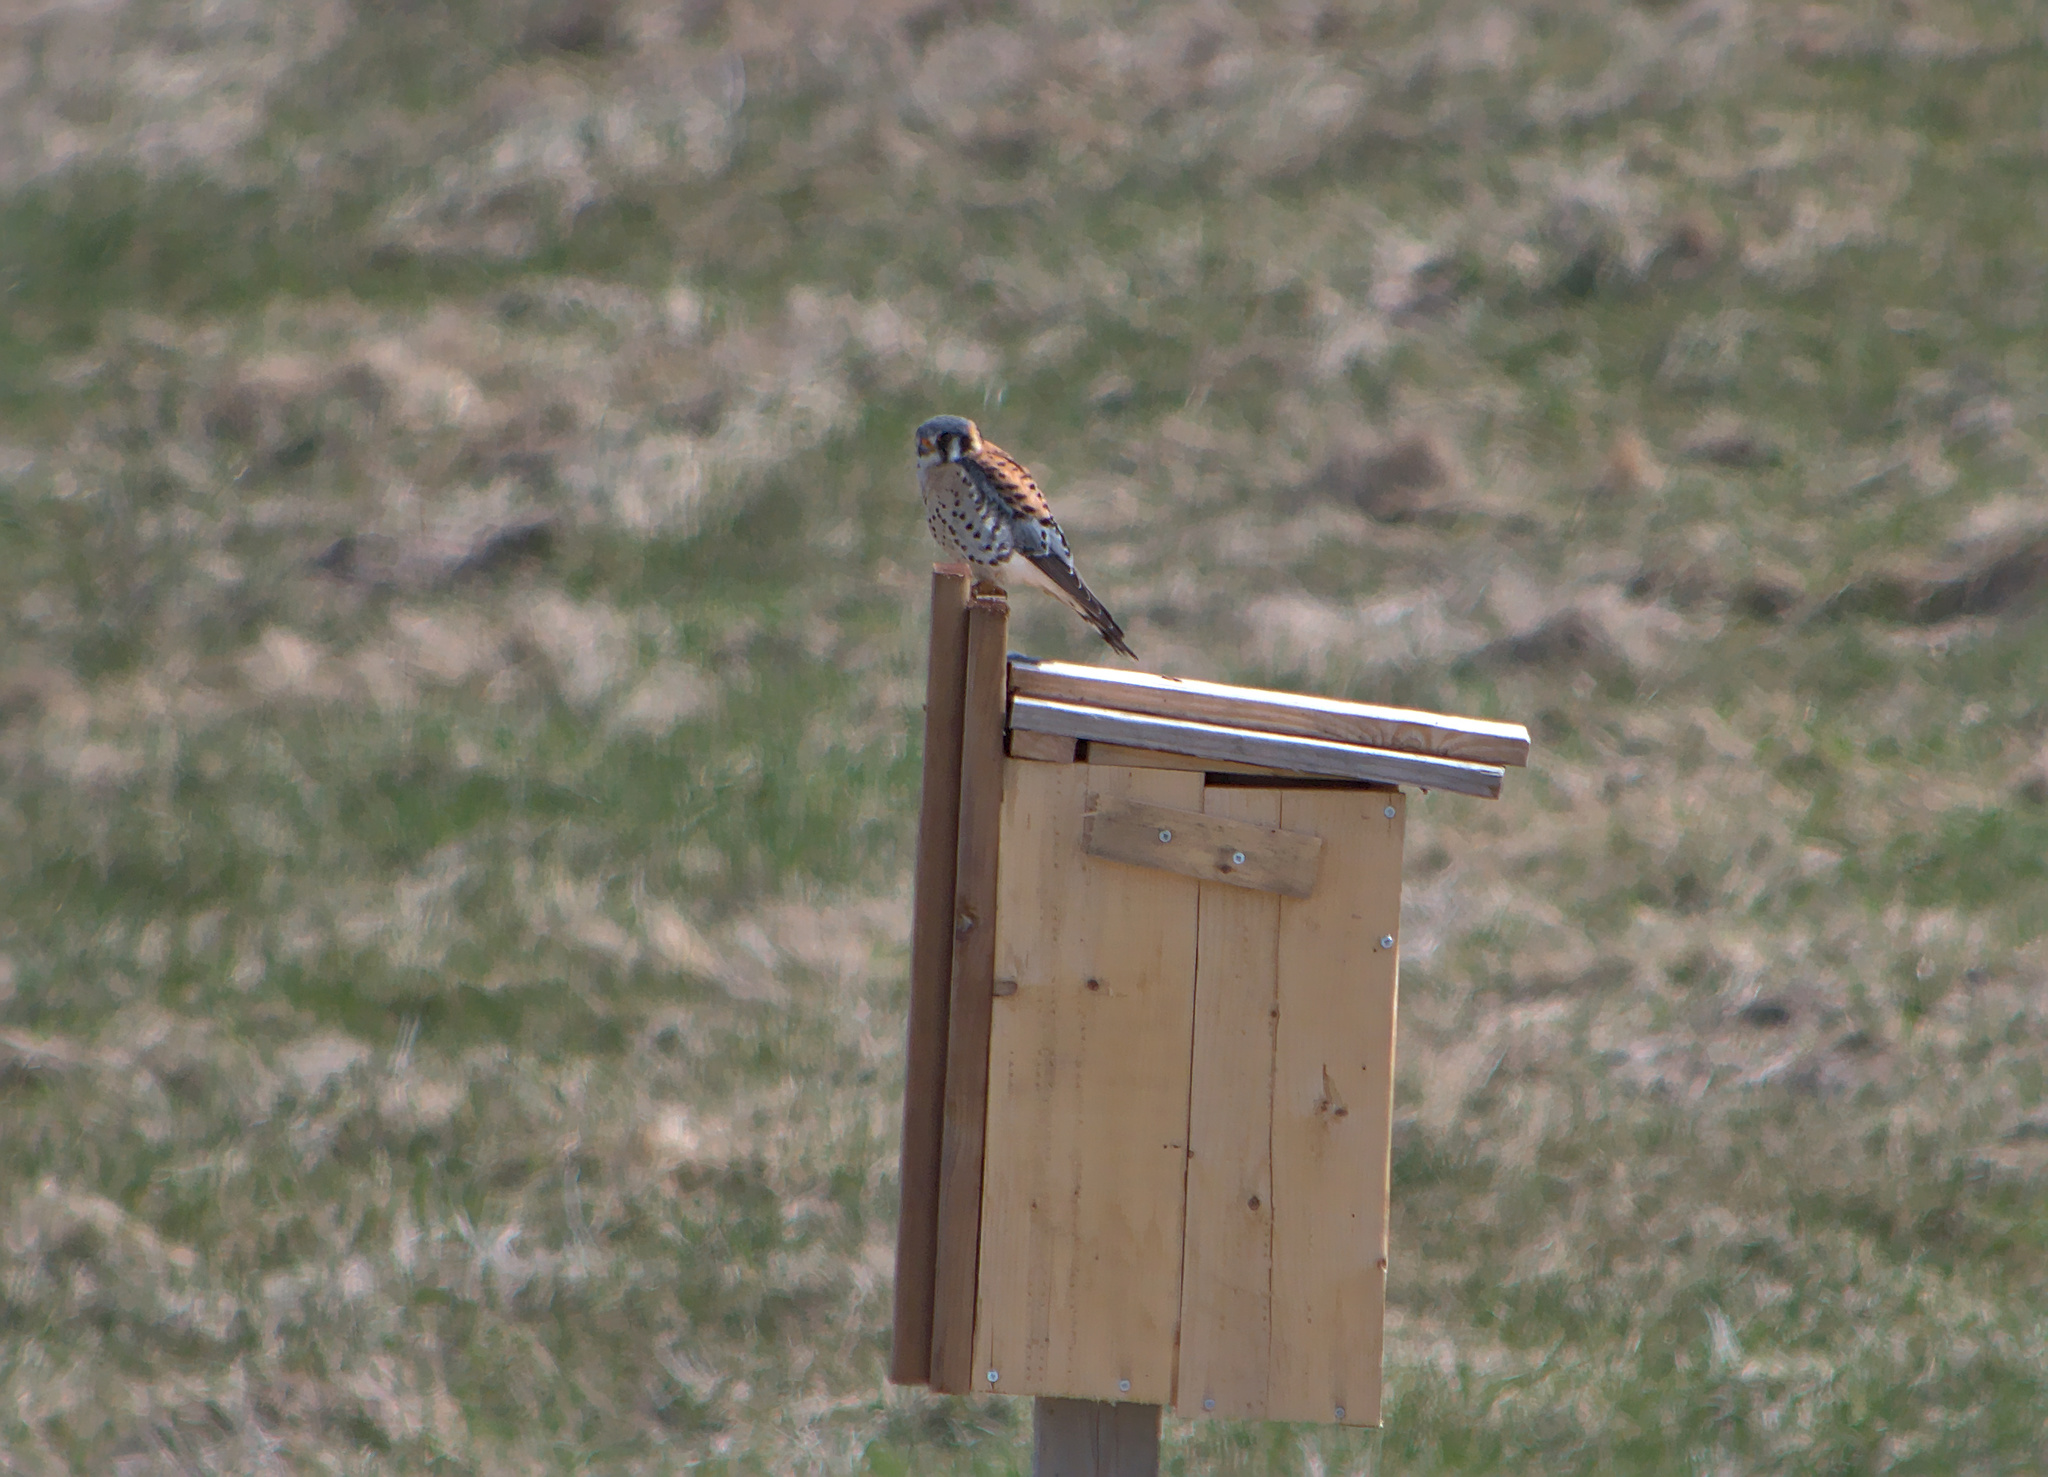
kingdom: Animalia
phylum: Chordata
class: Aves
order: Falconiformes
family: Falconidae
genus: Falco
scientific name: Falco sparverius
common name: American kestrel
